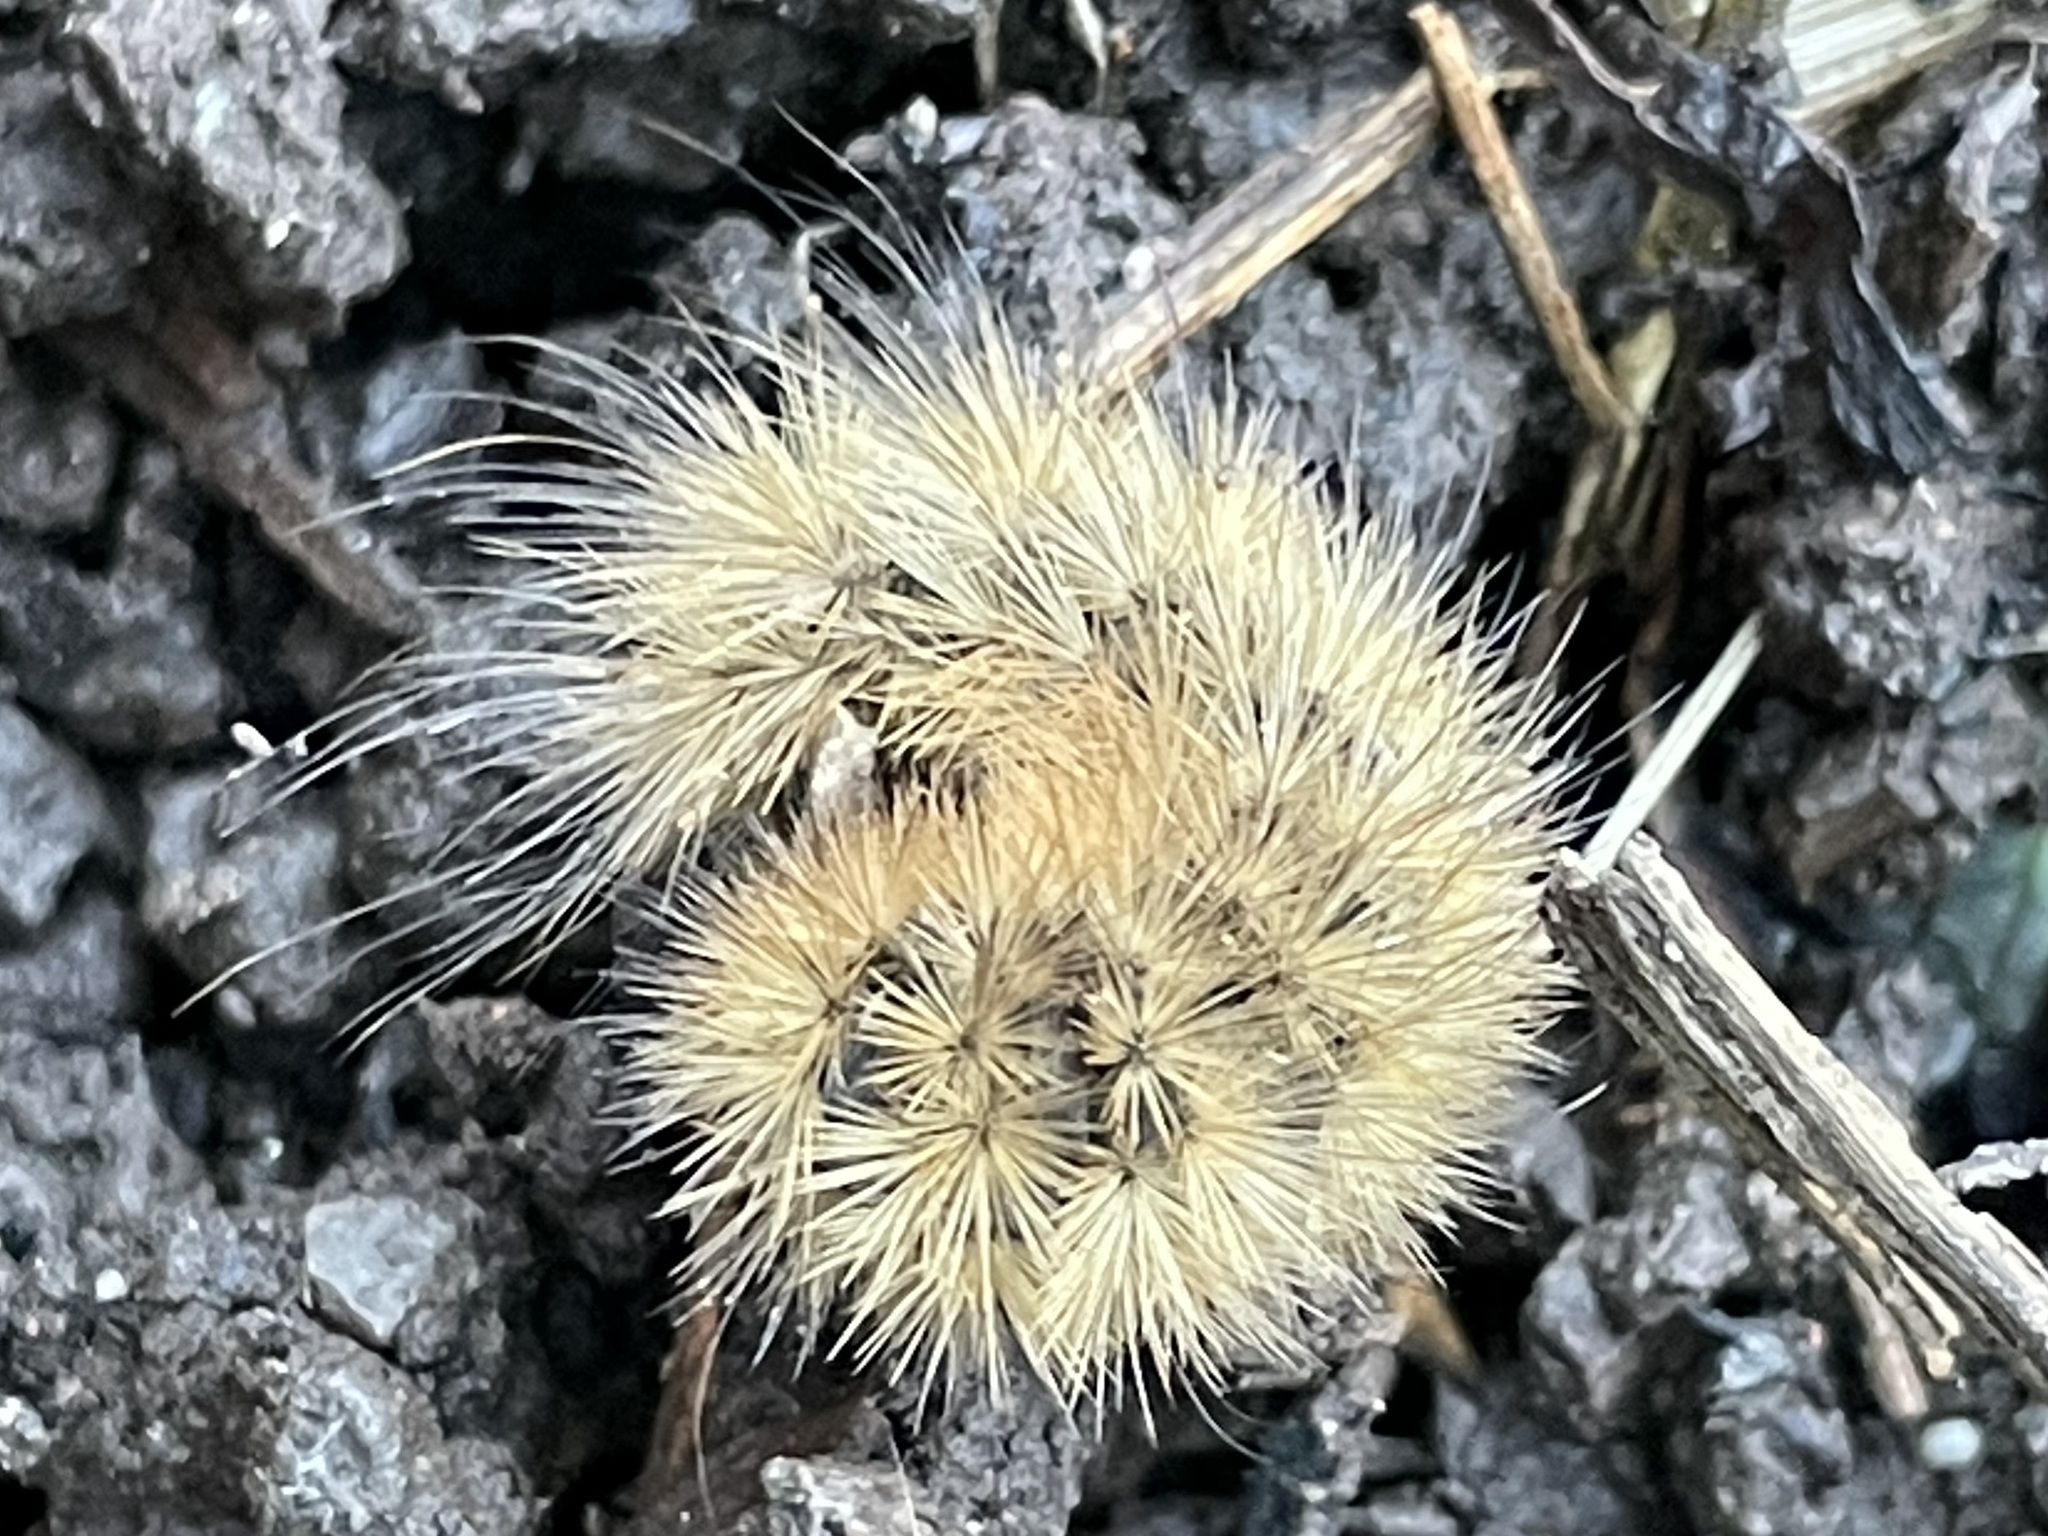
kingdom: Animalia
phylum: Arthropoda
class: Insecta
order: Lepidoptera
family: Erebidae
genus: Phragmatobia
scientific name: Phragmatobia fuliginosa
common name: Ruby tiger
